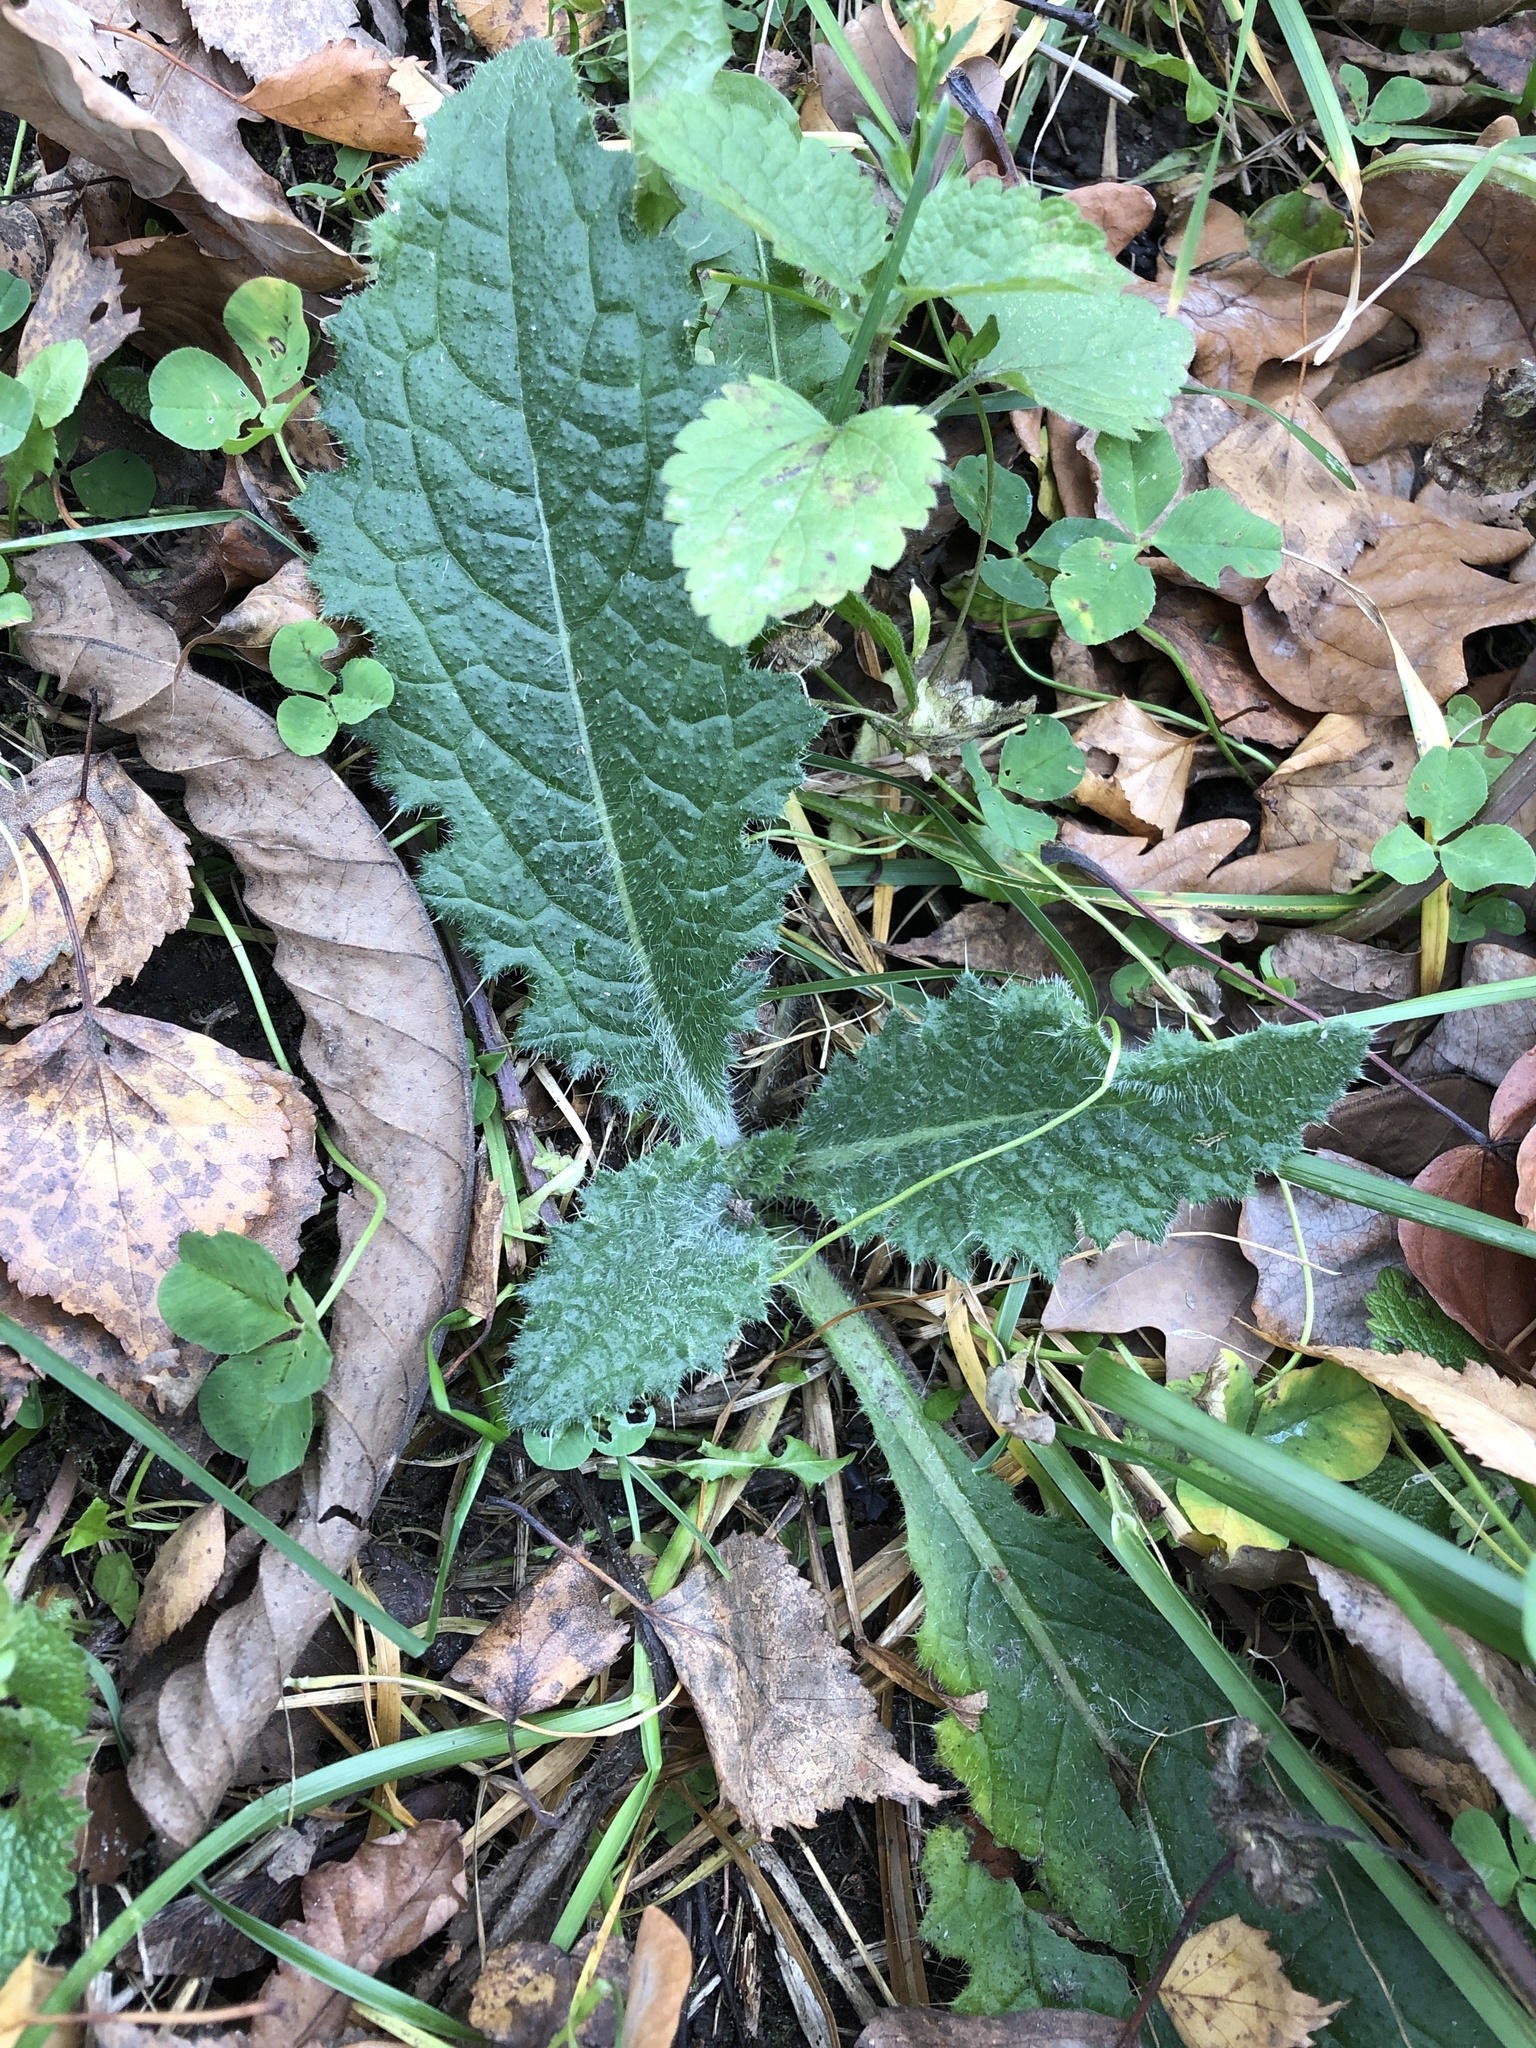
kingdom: Plantae
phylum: Tracheophyta
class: Magnoliopsida
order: Asterales
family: Asteraceae
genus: Cirsium
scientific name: Cirsium vulgare
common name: Bull thistle
